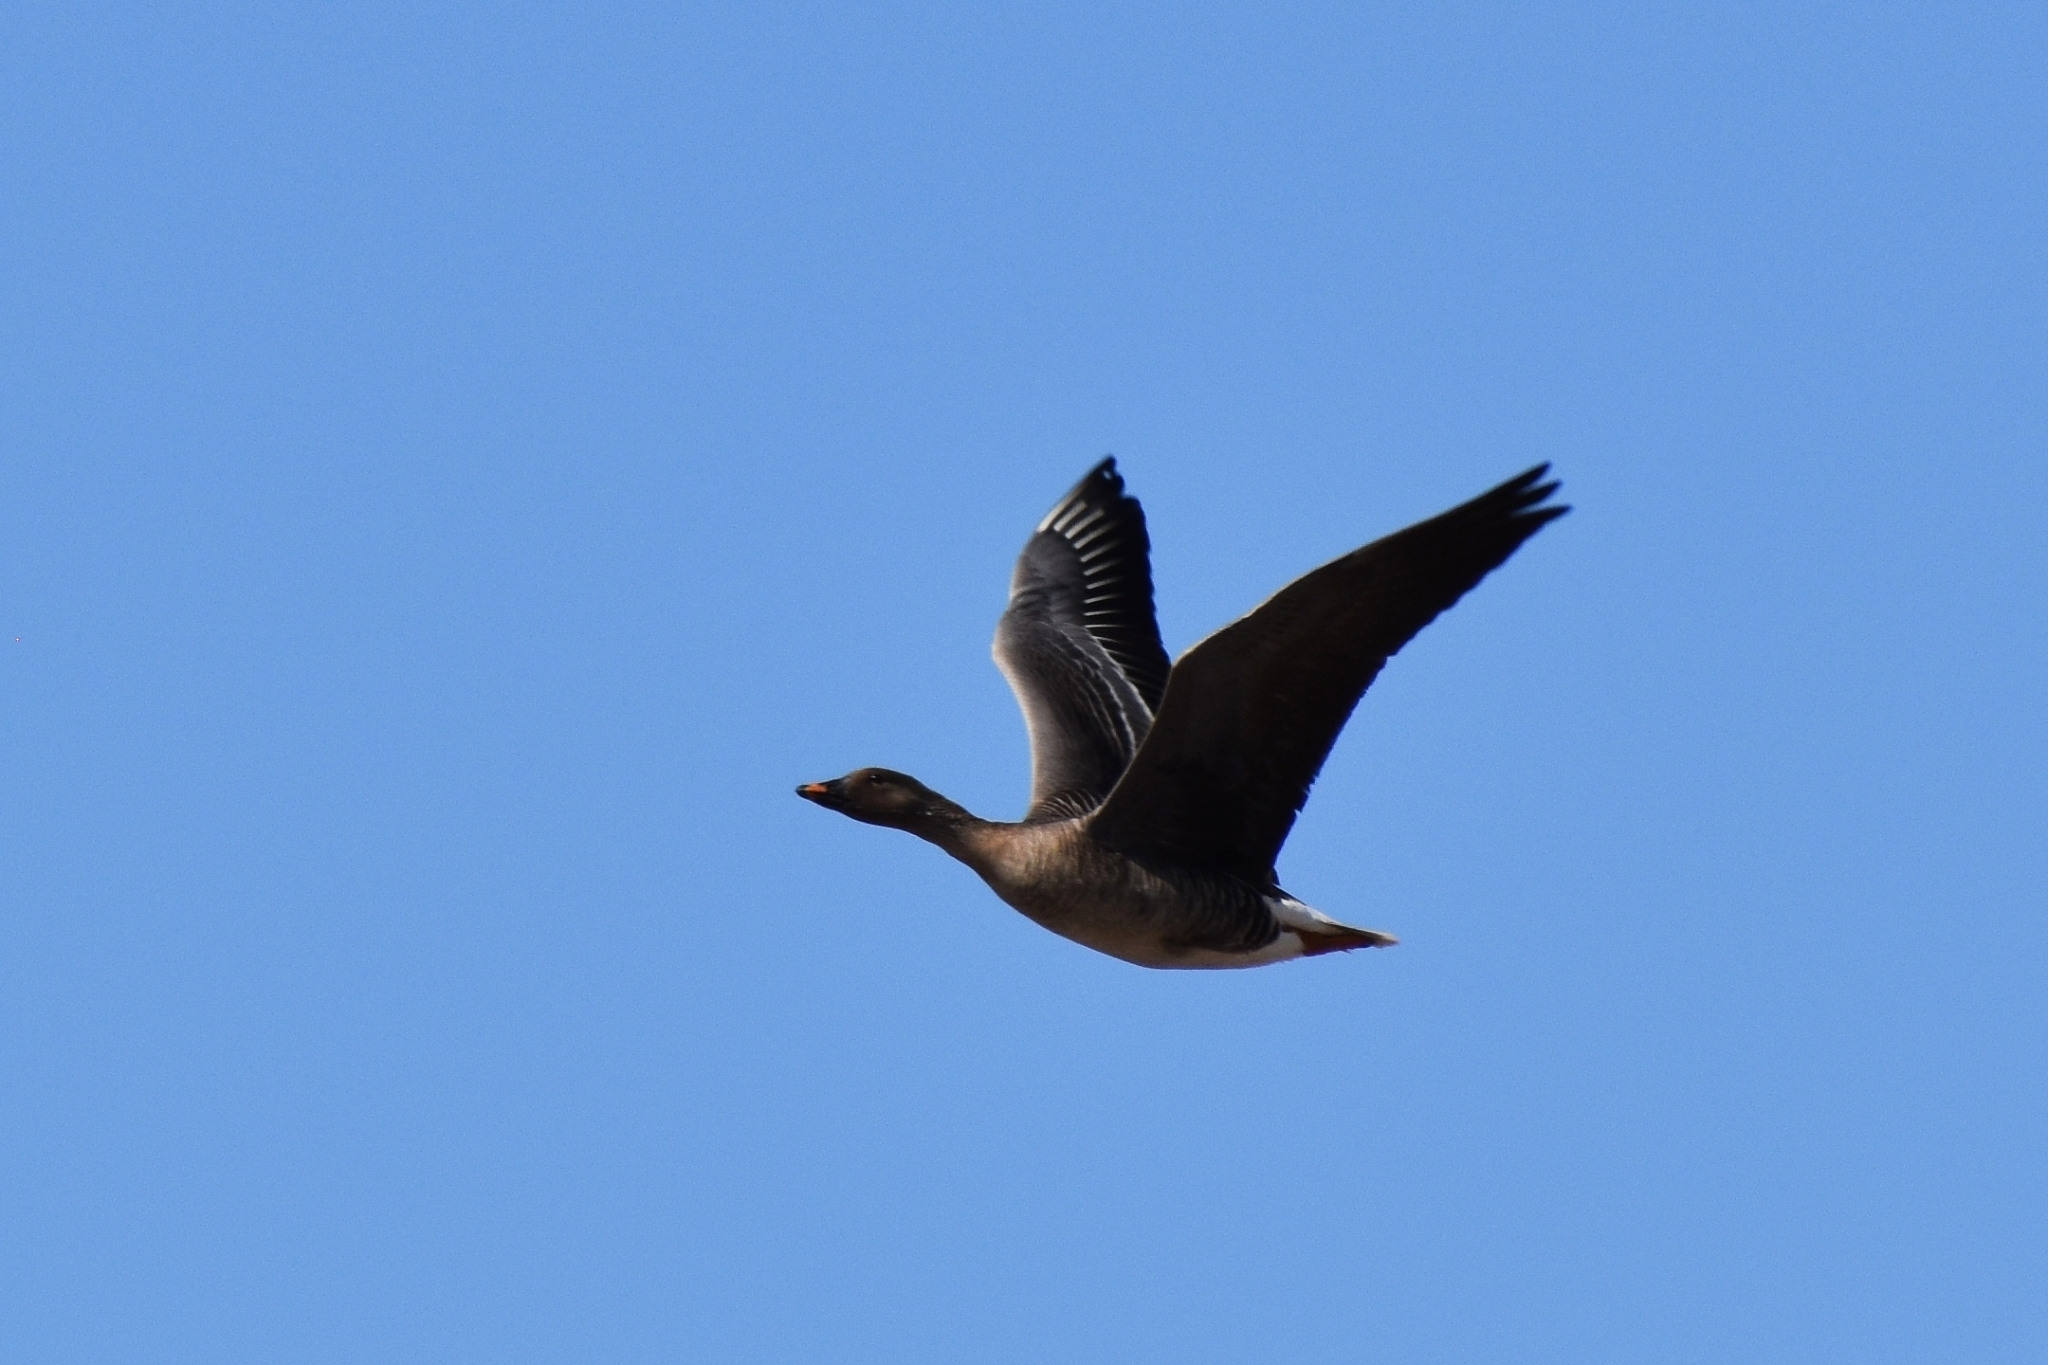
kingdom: Animalia
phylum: Chordata
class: Aves
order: Anseriformes
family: Anatidae
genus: Anser
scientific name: Anser fabalis
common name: Bean goose
